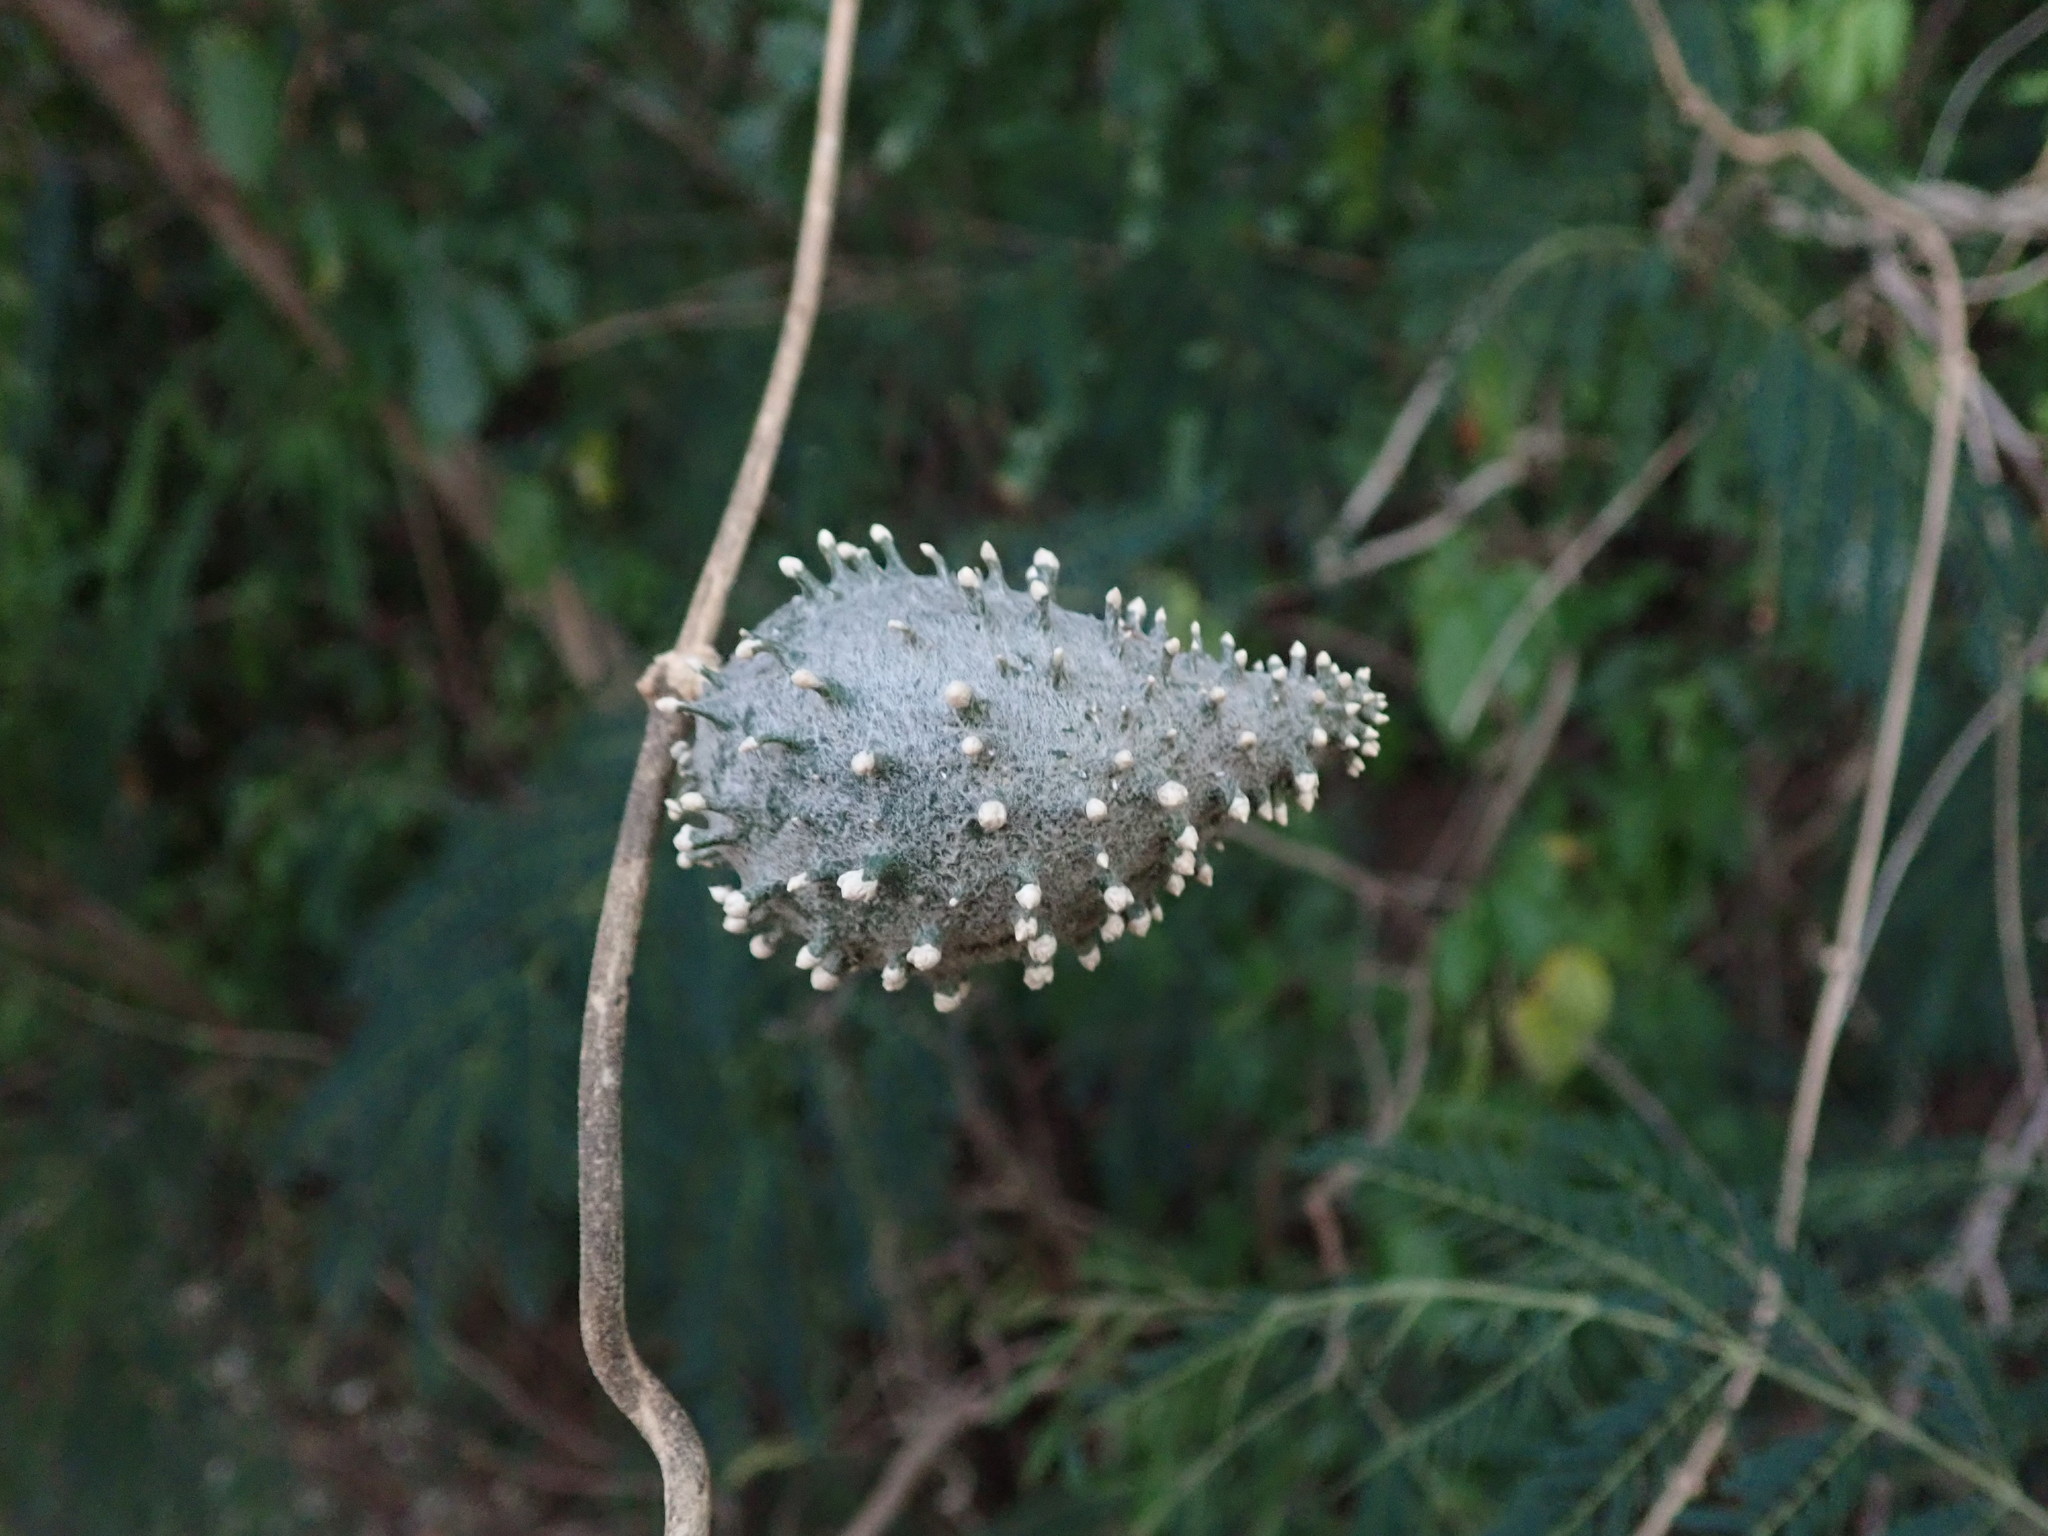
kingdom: Plantae
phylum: Tracheophyta
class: Magnoliopsida
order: Gentianales
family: Apocynaceae
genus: Ibatia
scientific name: Ibatia maritima
